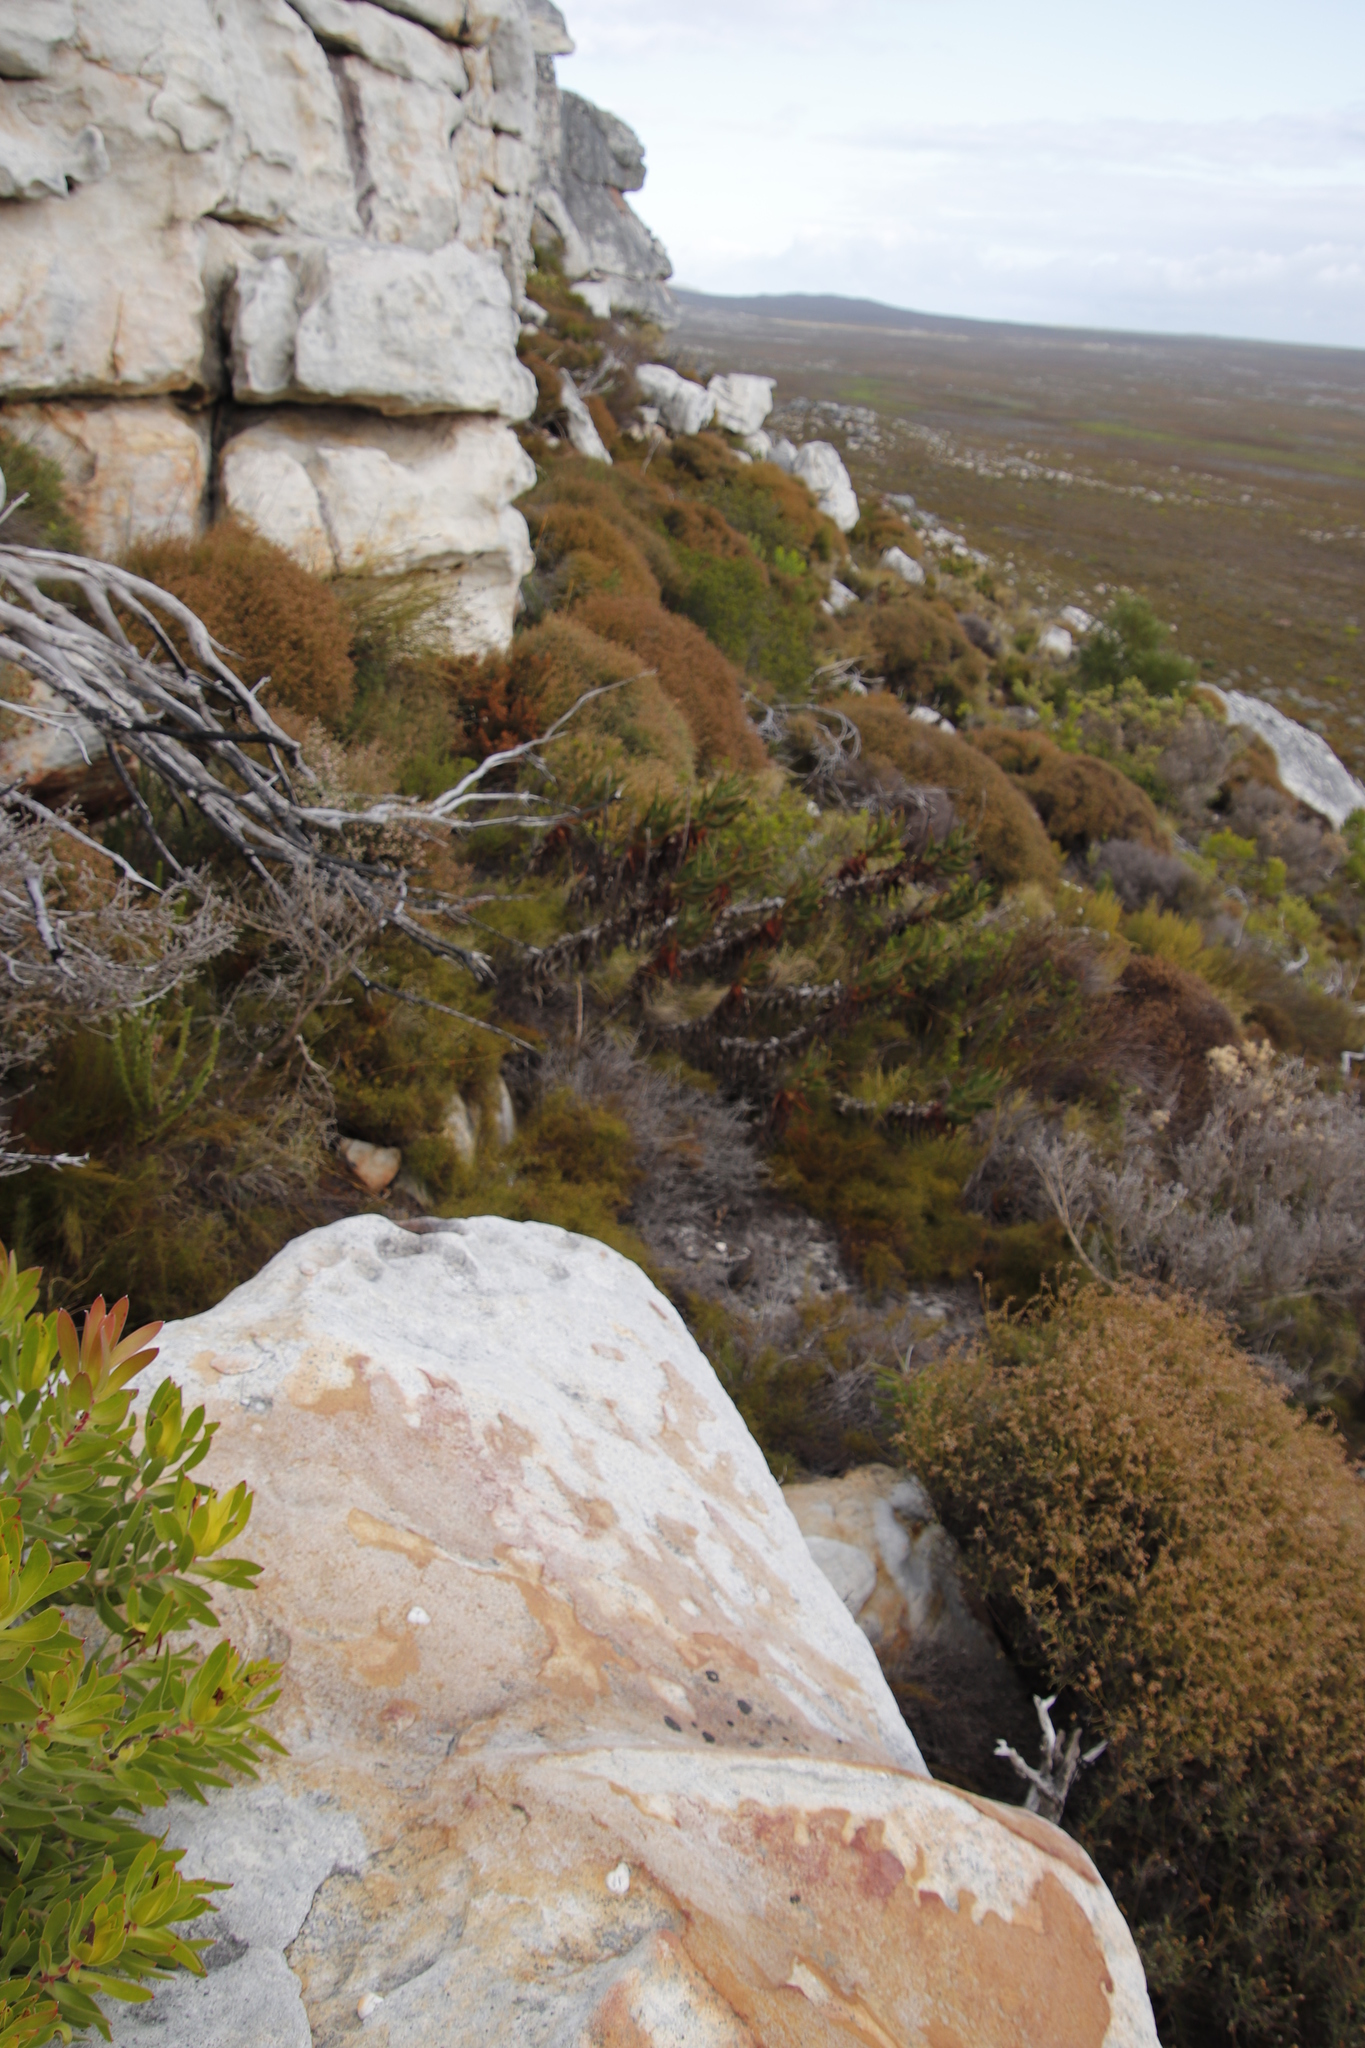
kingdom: Plantae
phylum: Tracheophyta
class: Liliopsida
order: Asparagales
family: Asphodelaceae
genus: Aloiampelos
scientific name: Aloiampelos commixta
